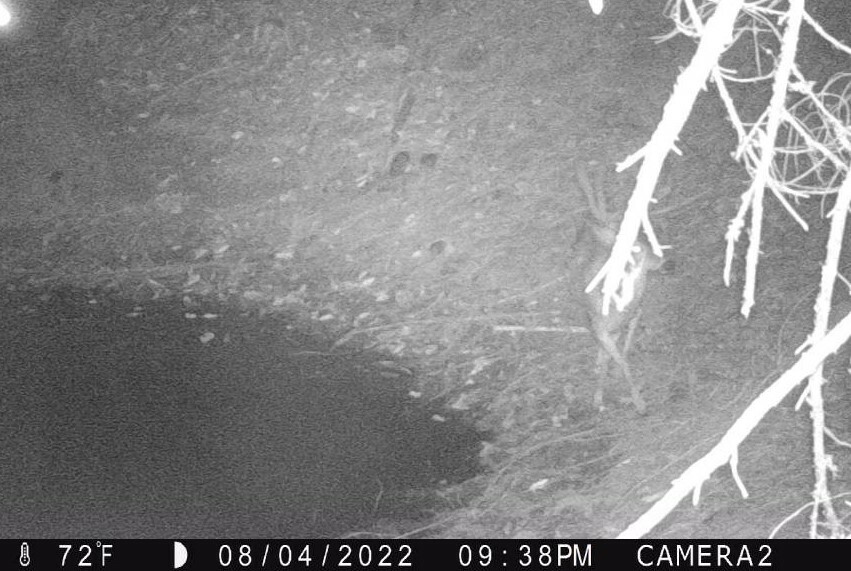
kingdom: Animalia
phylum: Chordata
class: Mammalia
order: Artiodactyla
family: Cervidae
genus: Odocoileus
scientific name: Odocoileus hemionus
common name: Mule deer
